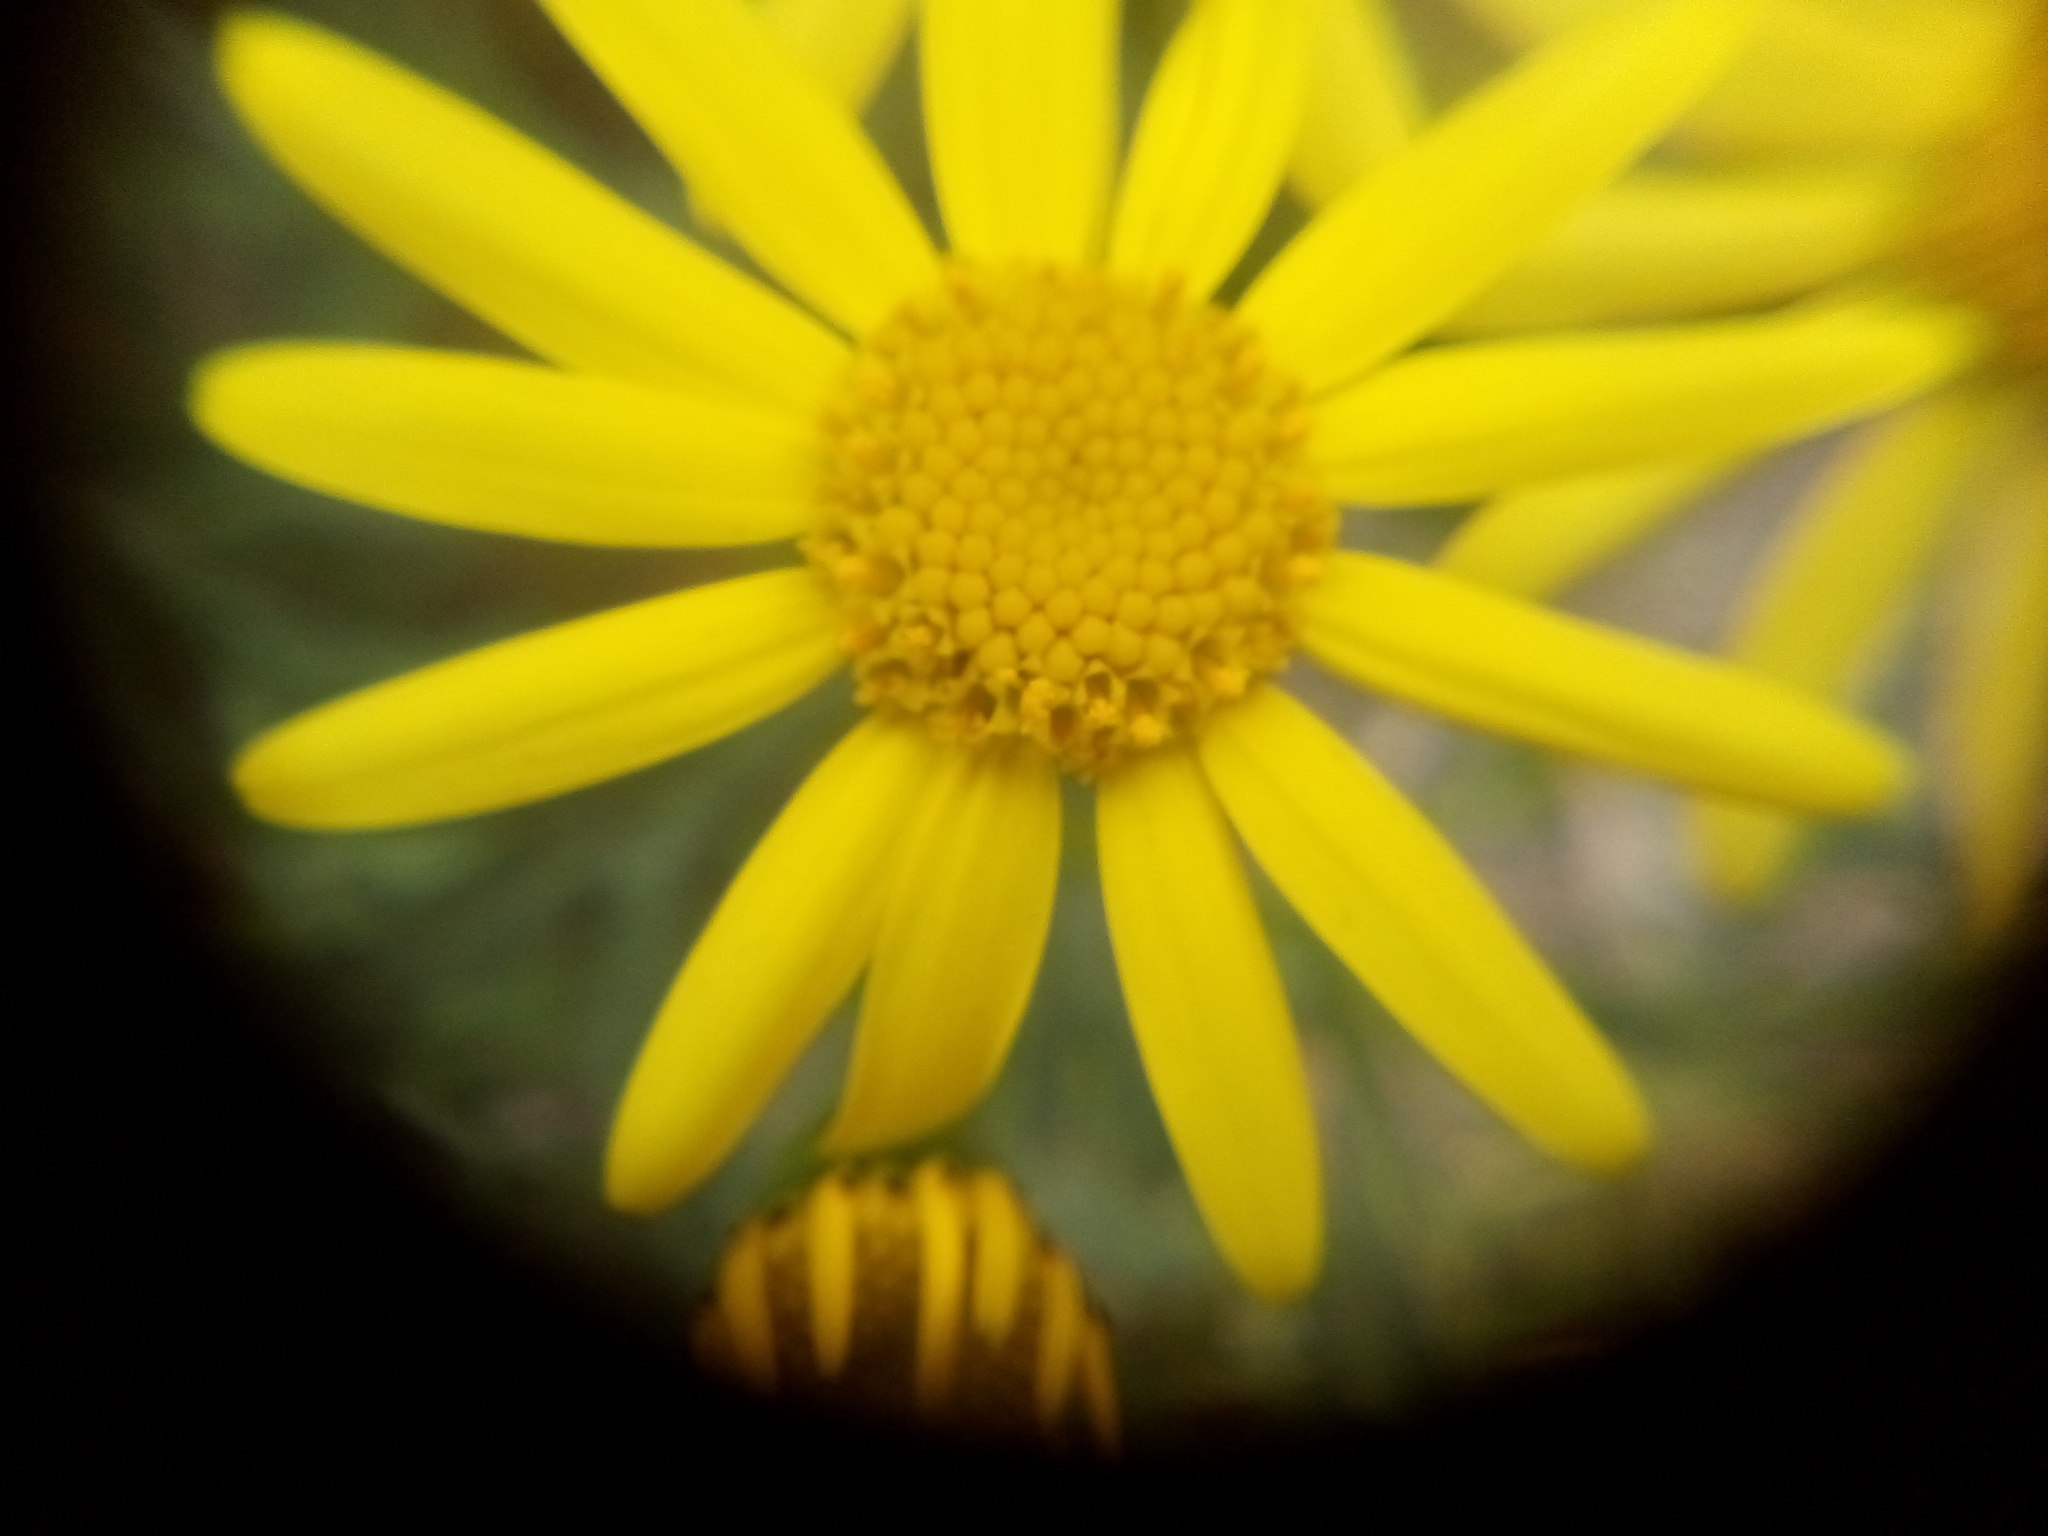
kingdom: Plantae
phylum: Tracheophyta
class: Magnoliopsida
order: Asterales
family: Asteraceae
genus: Senecio
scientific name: Senecio squalidus
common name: Oxford ragwort
